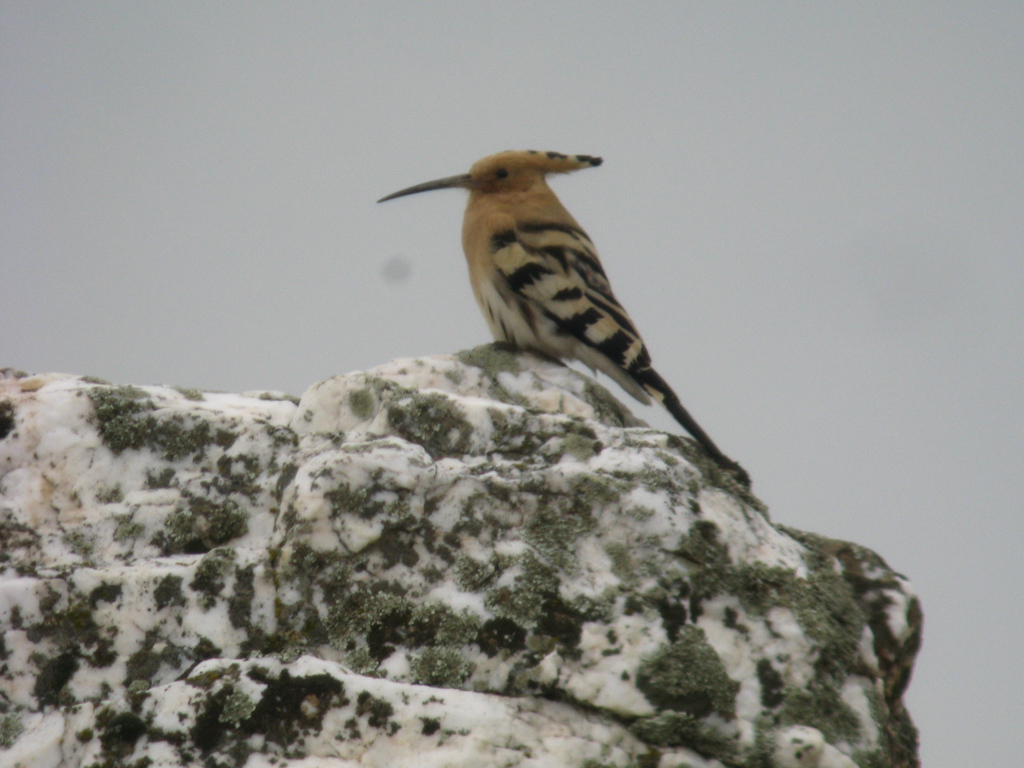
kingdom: Animalia
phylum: Chordata
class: Aves
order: Bucerotiformes
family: Upupidae
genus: Upupa
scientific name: Upupa epops
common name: Eurasian hoopoe
